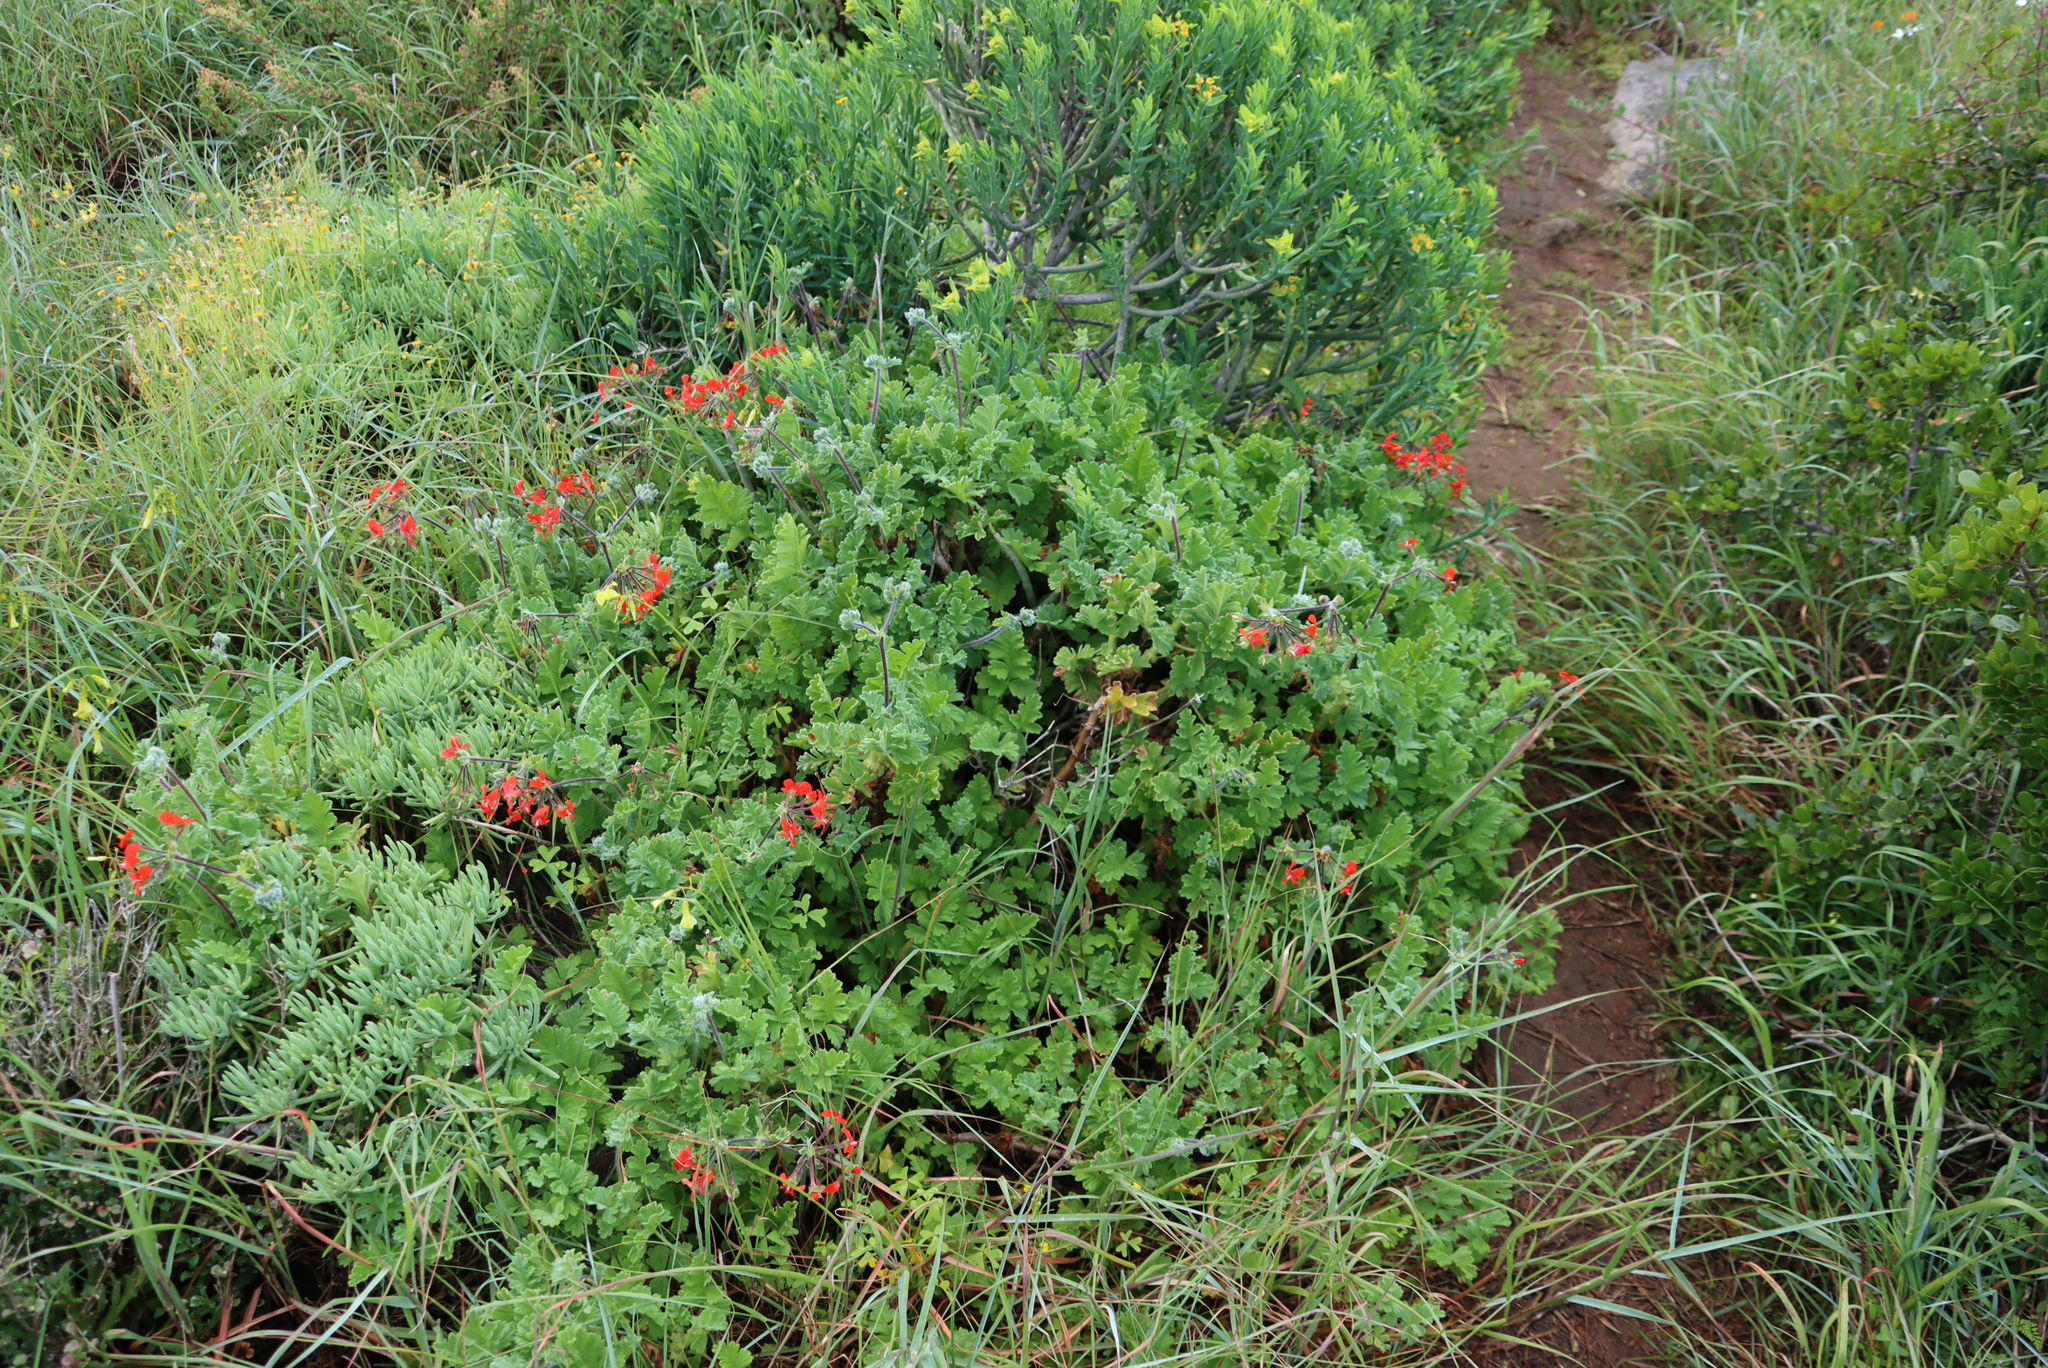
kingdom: Plantae
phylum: Tracheophyta
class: Magnoliopsida
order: Geraniales
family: Geraniaceae
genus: Pelargonium
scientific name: Pelargonium fulgidum
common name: Celandine-leaf pelargonium
